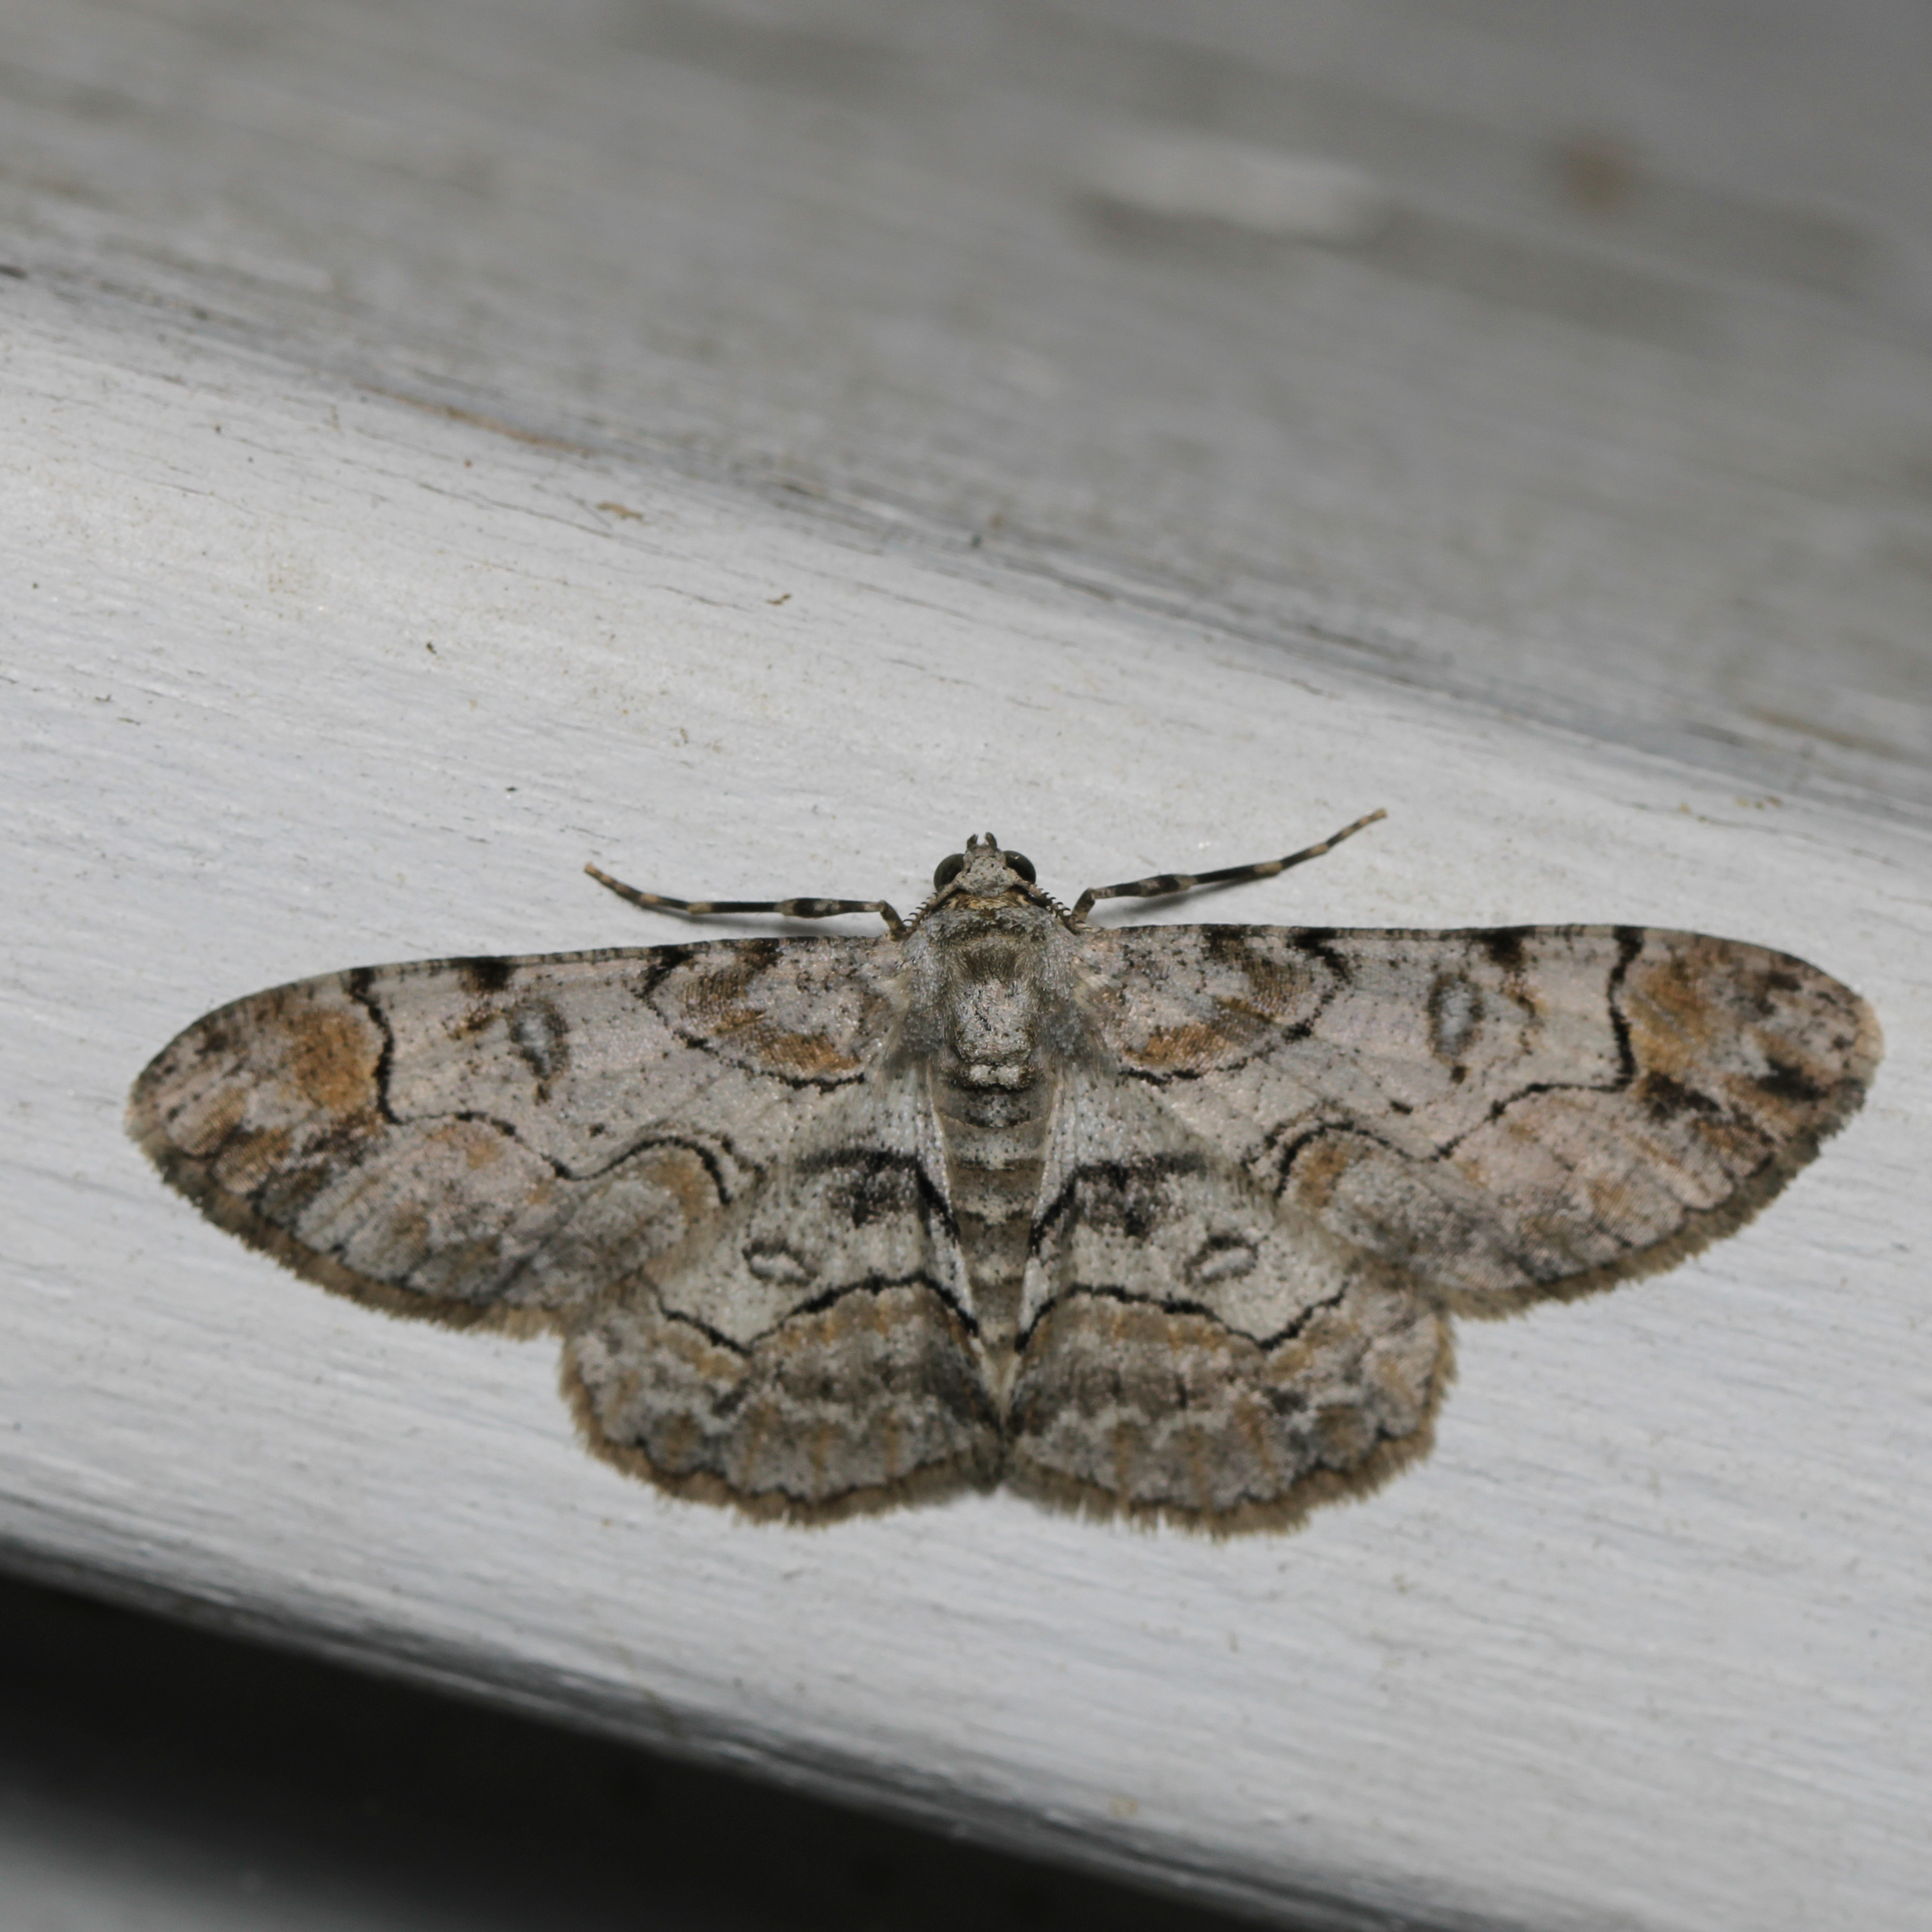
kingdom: Animalia
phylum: Arthropoda
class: Insecta
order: Lepidoptera
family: Geometridae
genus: Iridopsis
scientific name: Iridopsis larvaria
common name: Bent-line gray
